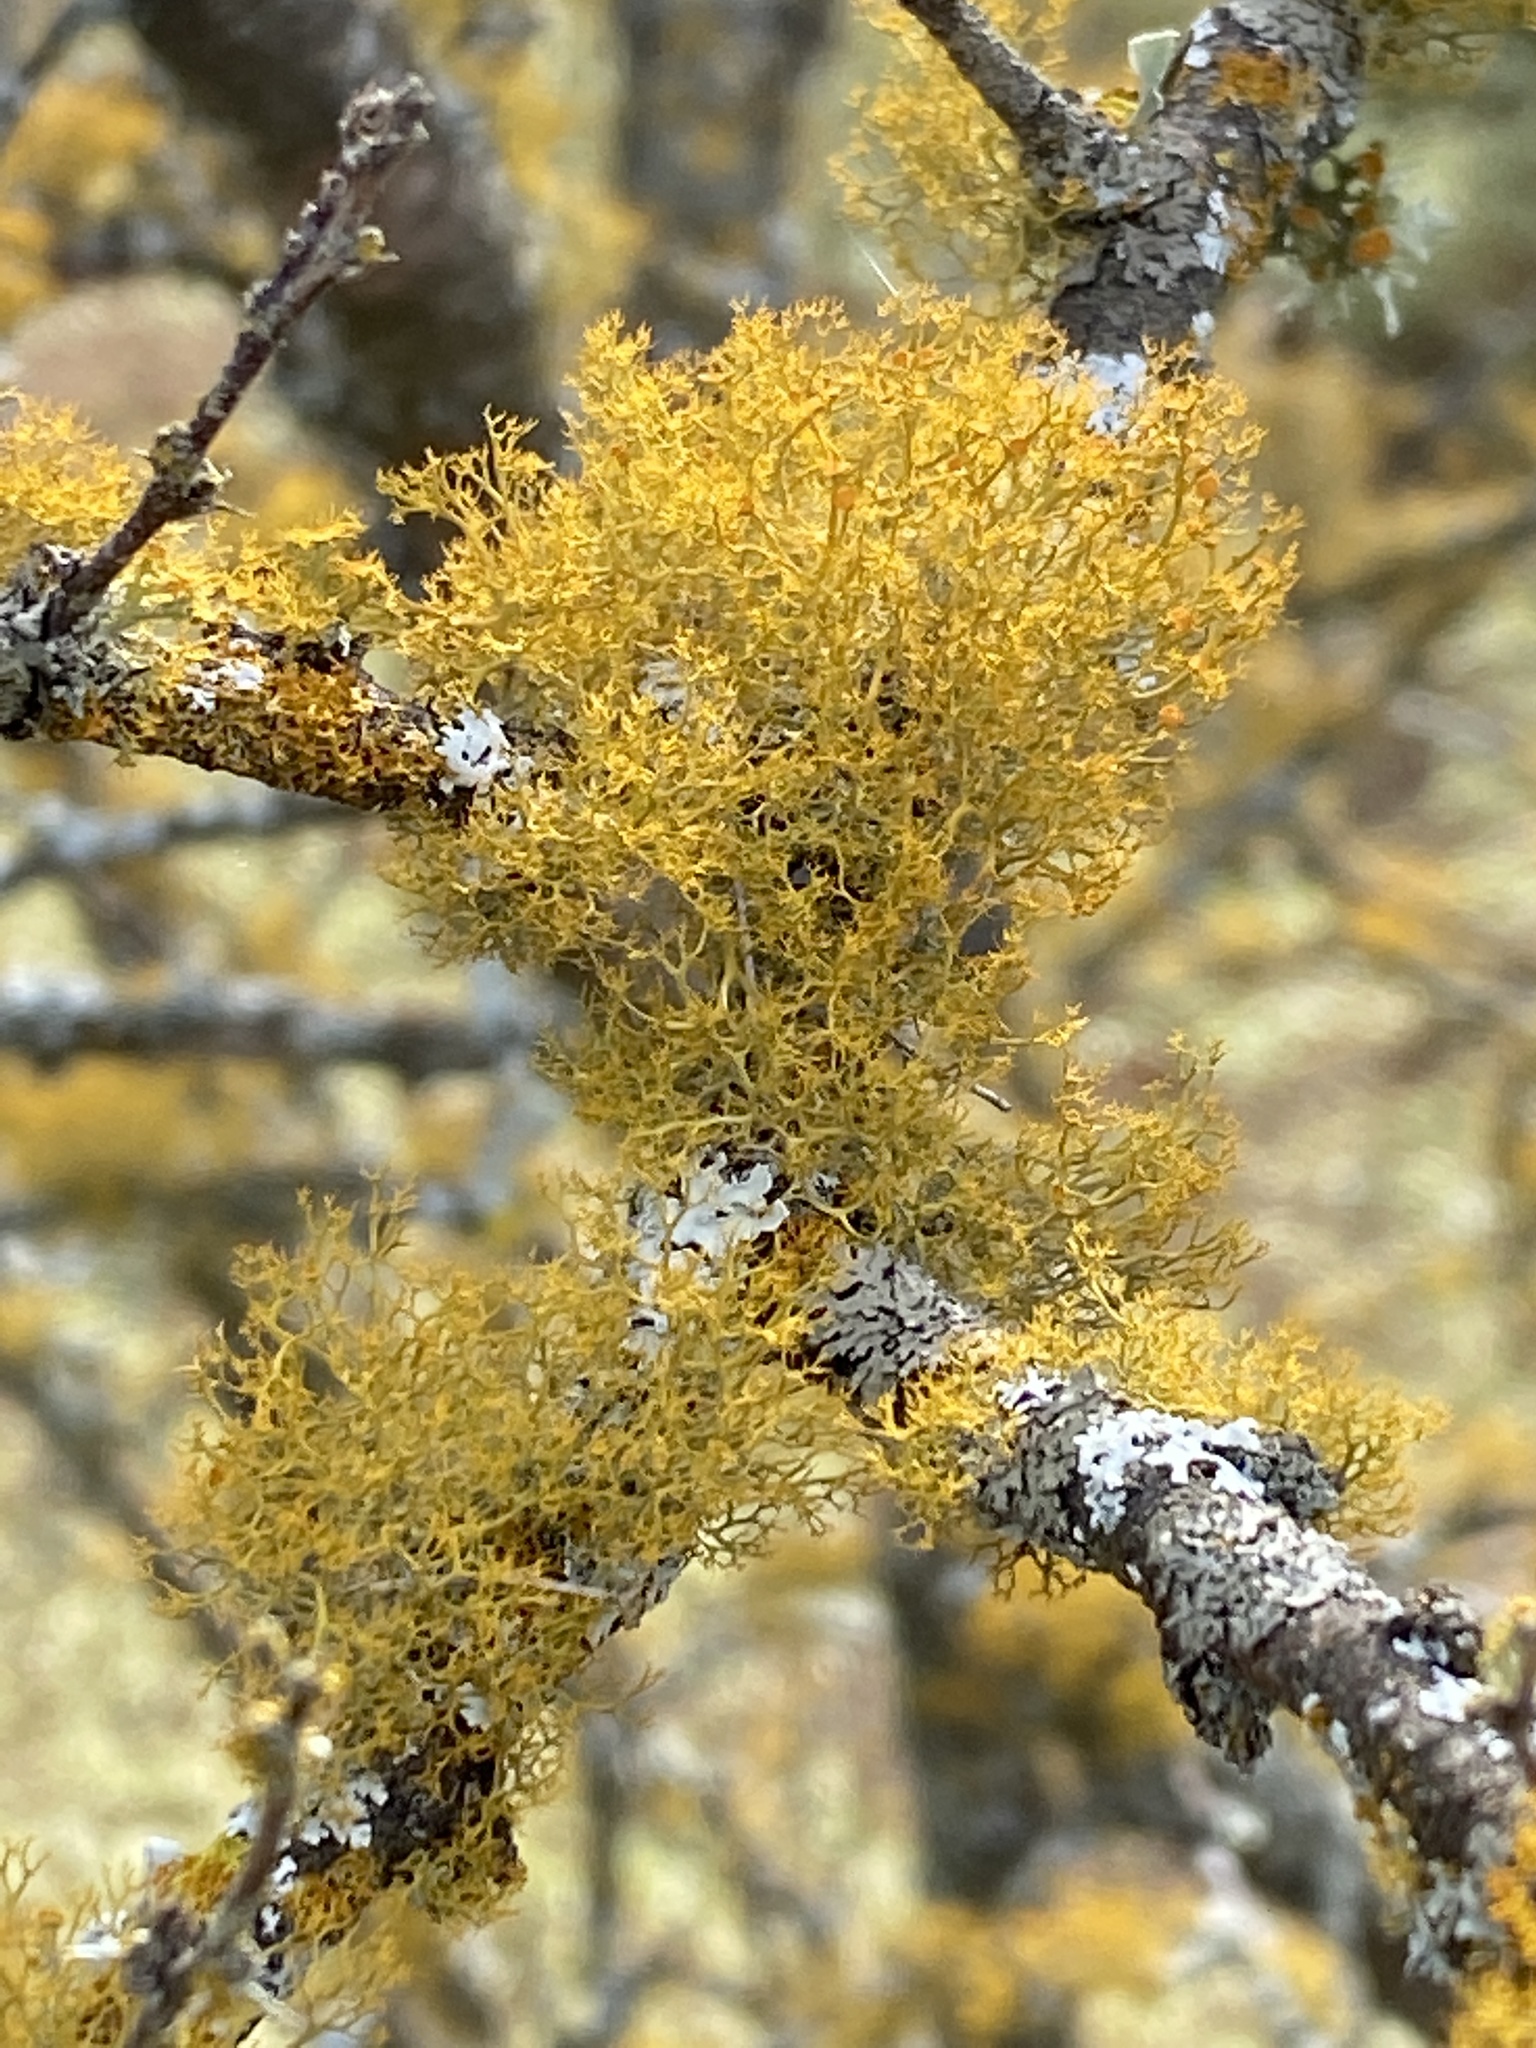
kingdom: Fungi
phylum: Ascomycota
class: Lecanoromycetes
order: Teloschistales
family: Teloschistaceae
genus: Teloschistes
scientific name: Teloschistes exilis
